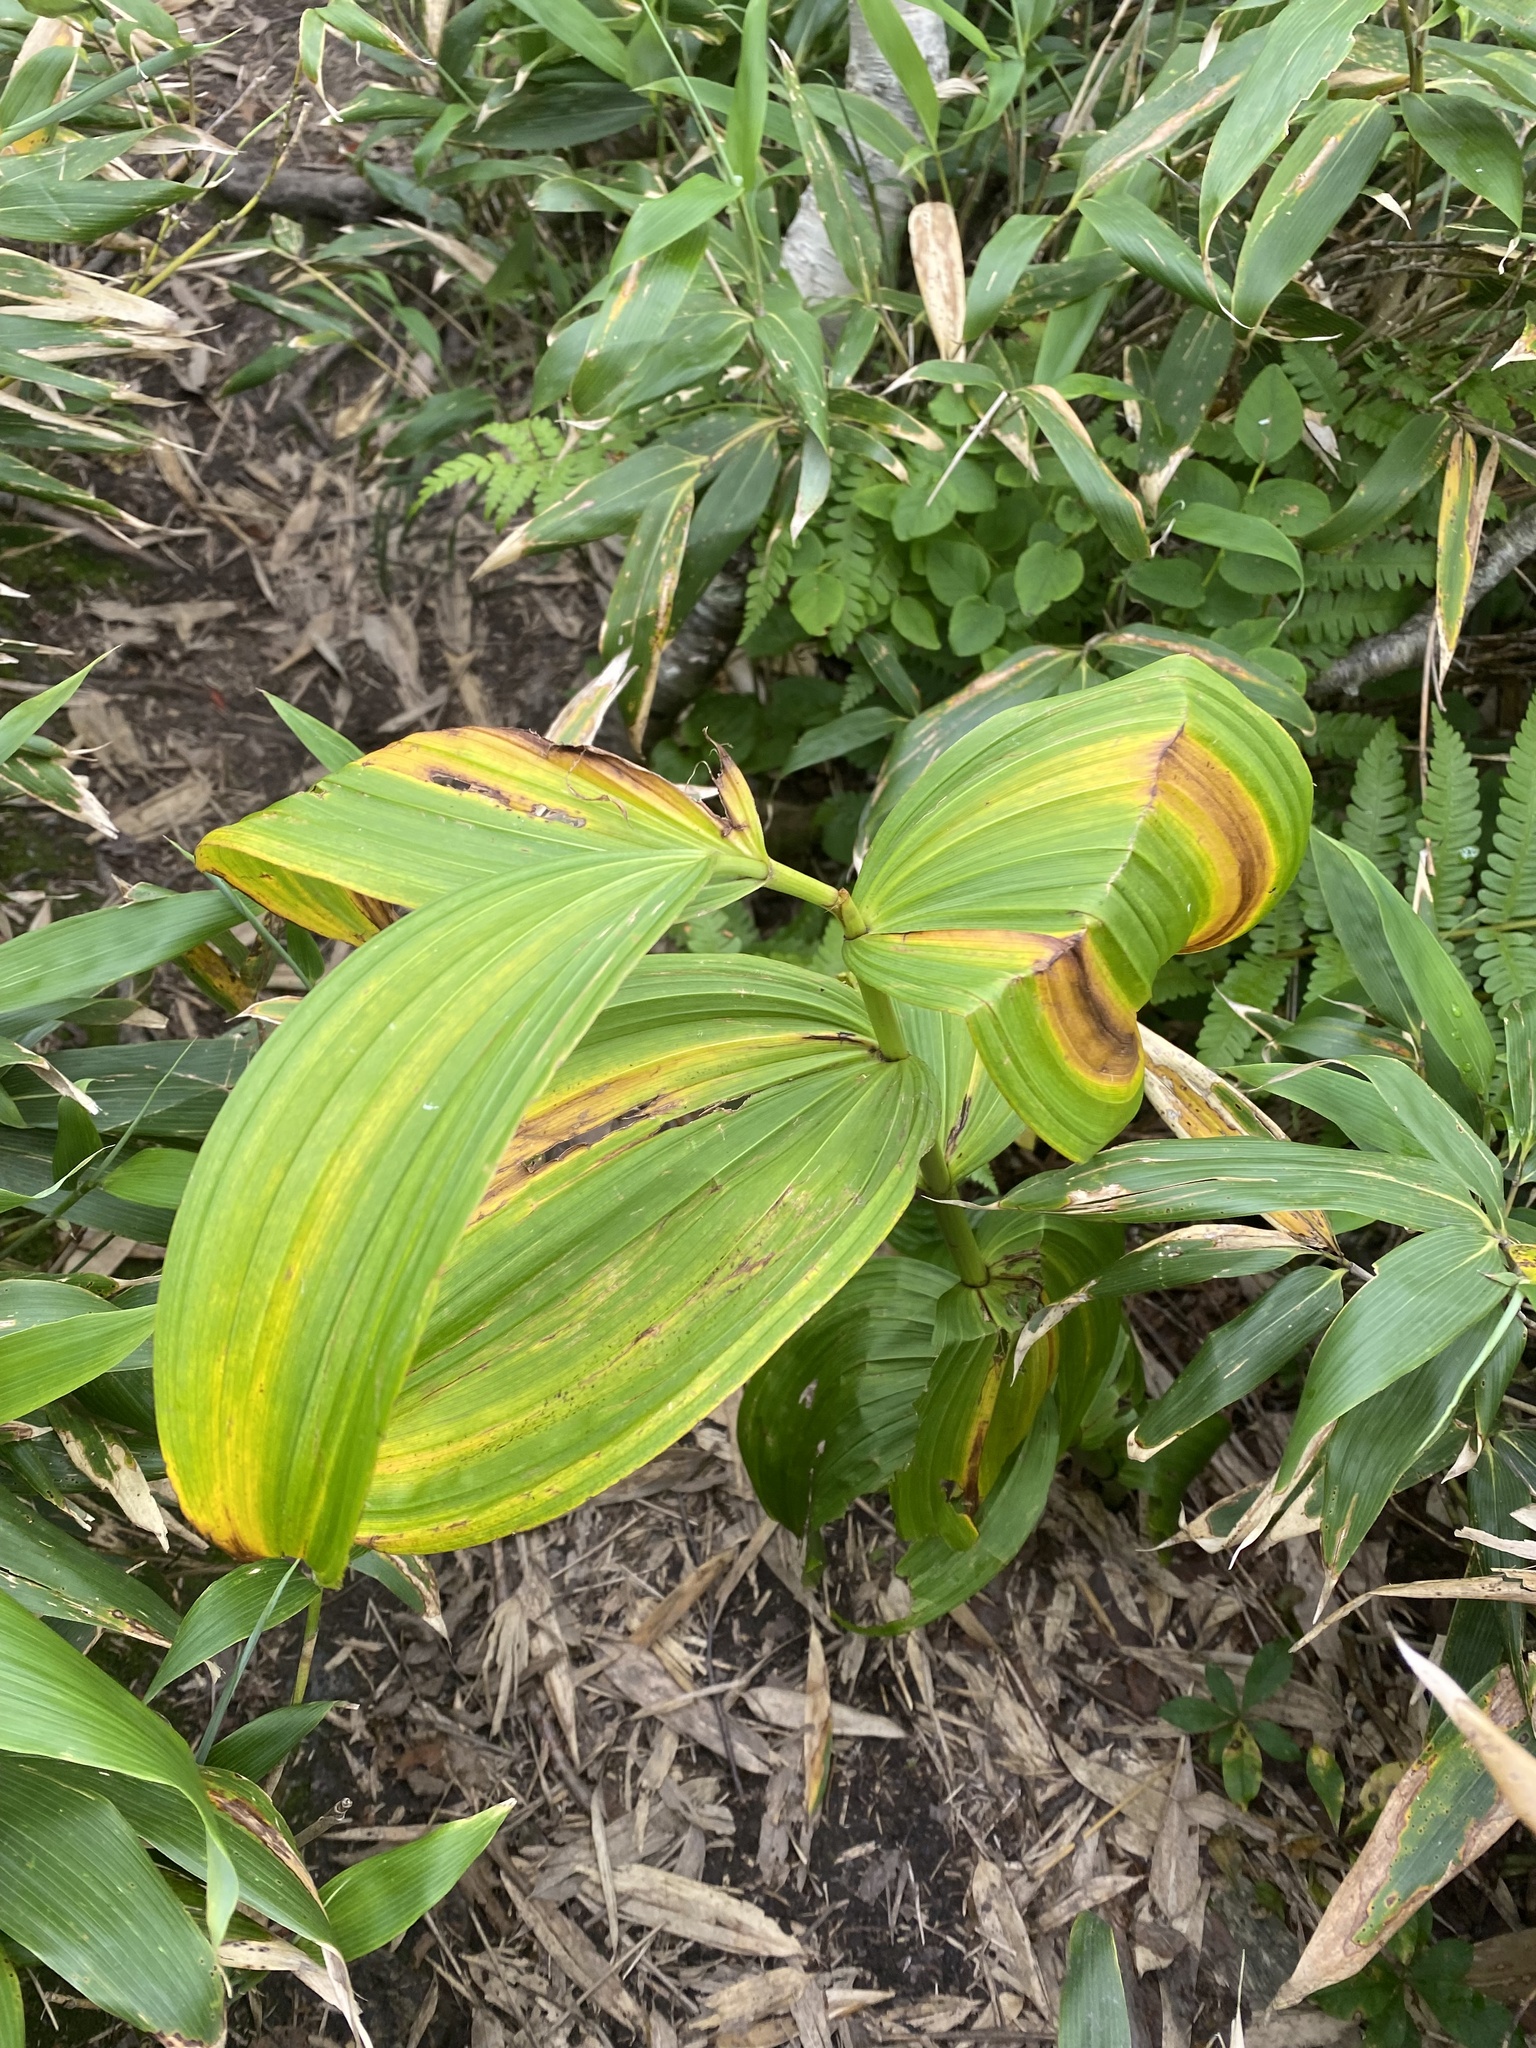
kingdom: Plantae
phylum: Tracheophyta
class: Liliopsida
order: Liliales
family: Melanthiaceae
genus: Veratrum
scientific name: Veratrum oxysepalum
